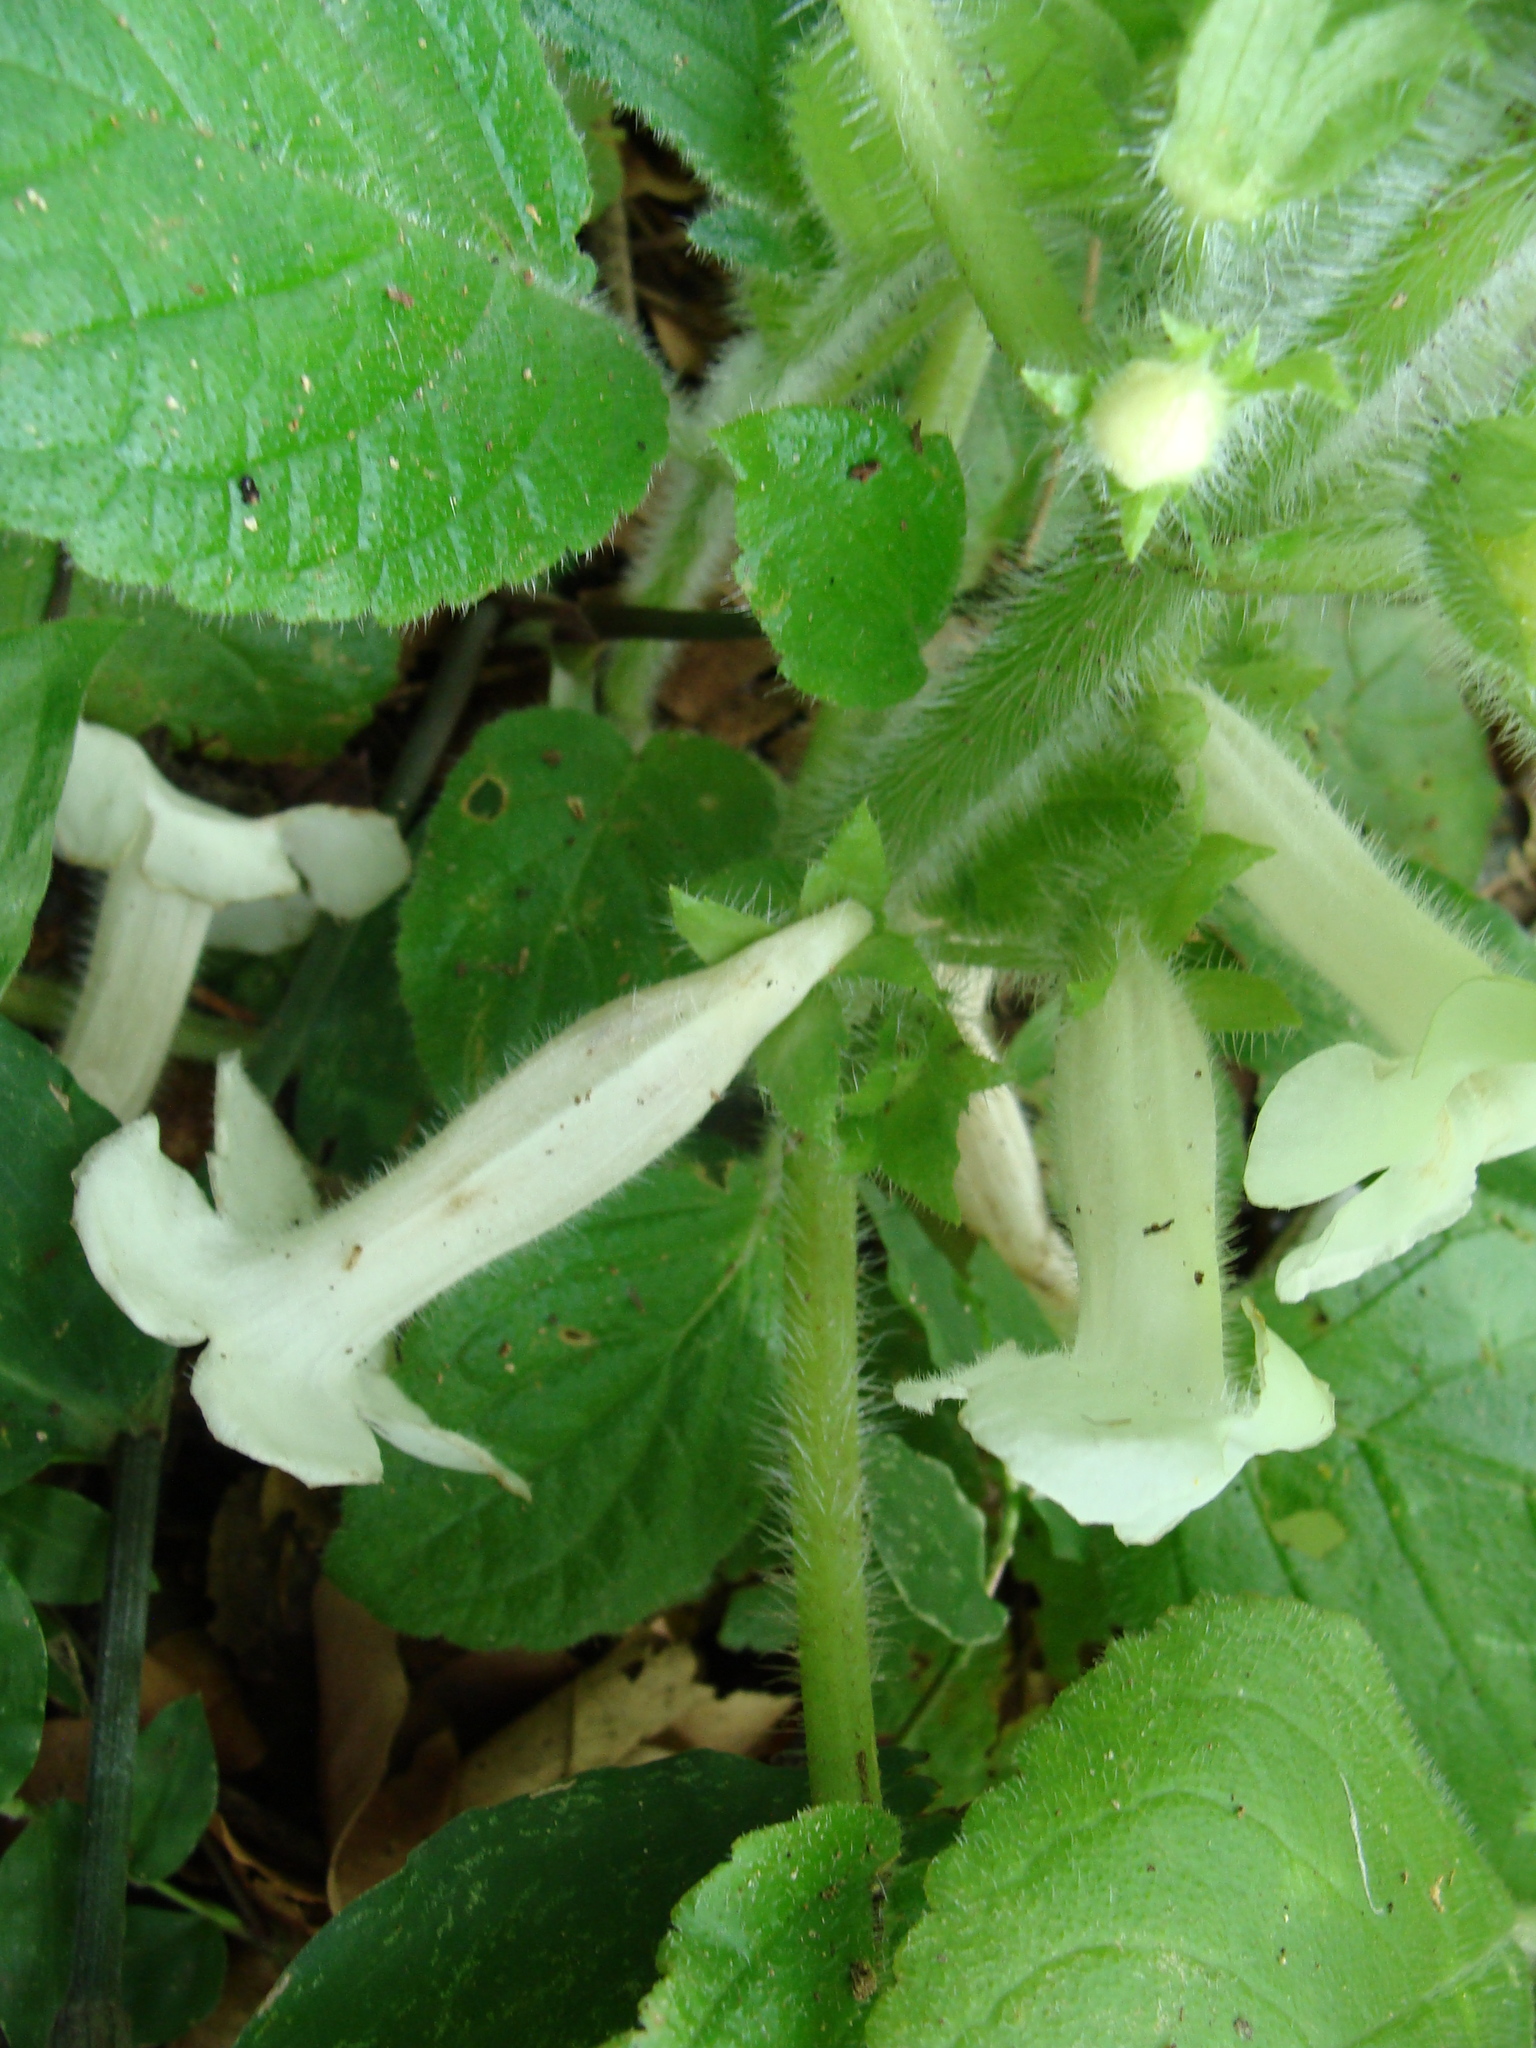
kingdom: Plantae
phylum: Tracheophyta
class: Magnoliopsida
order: Lamiales
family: Gesneriaceae
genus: Chrysothemis
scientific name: Chrysothemis panamensis
